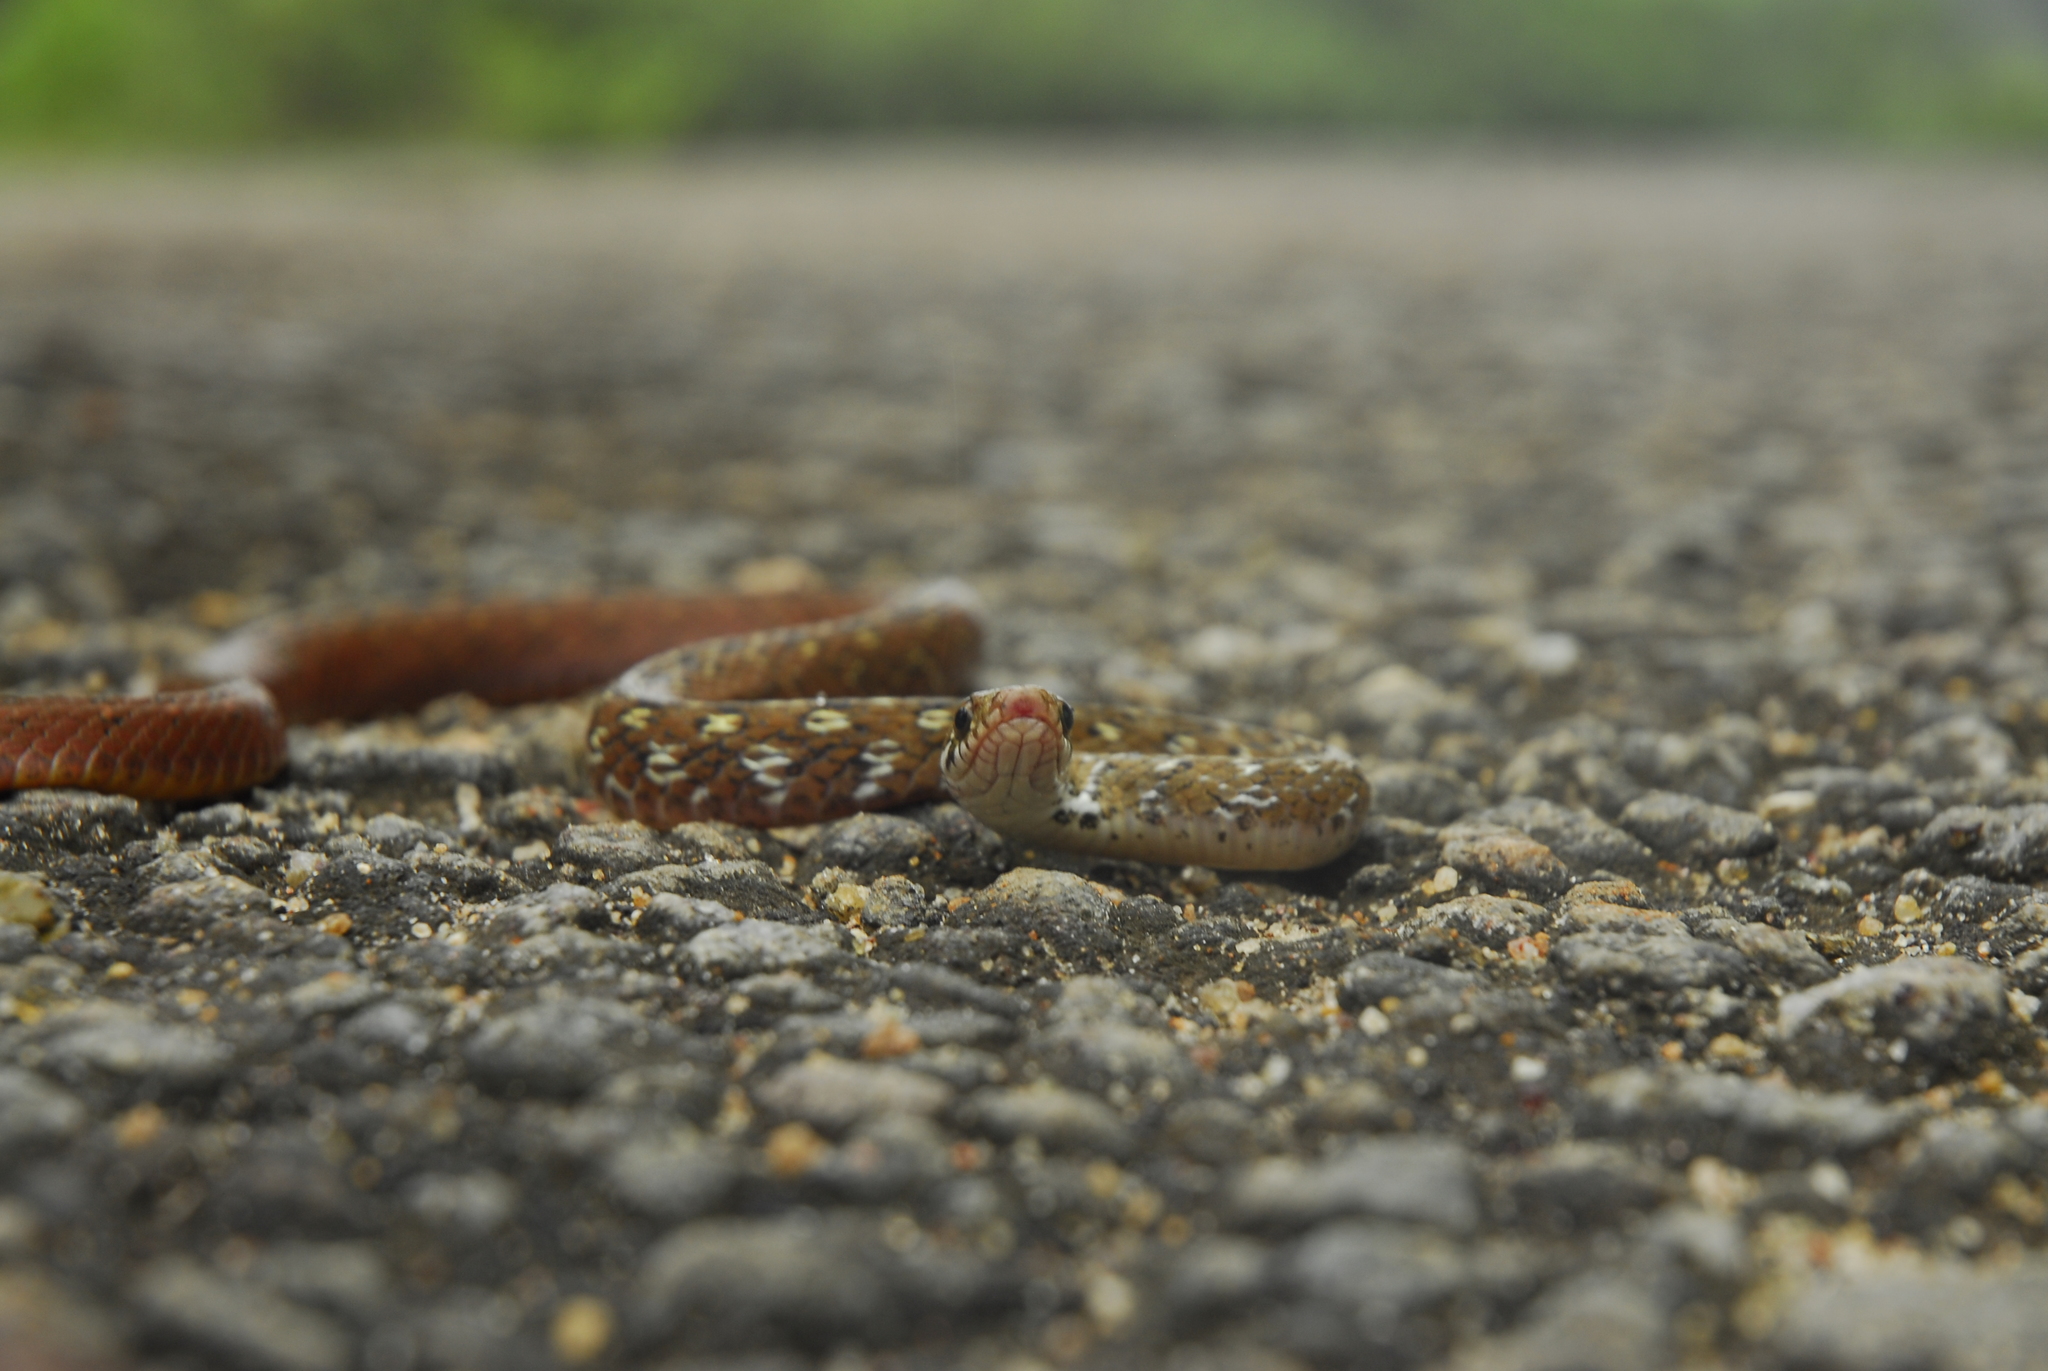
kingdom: Animalia
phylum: Chordata
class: Squamata
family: Colubridae
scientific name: Colubridae
